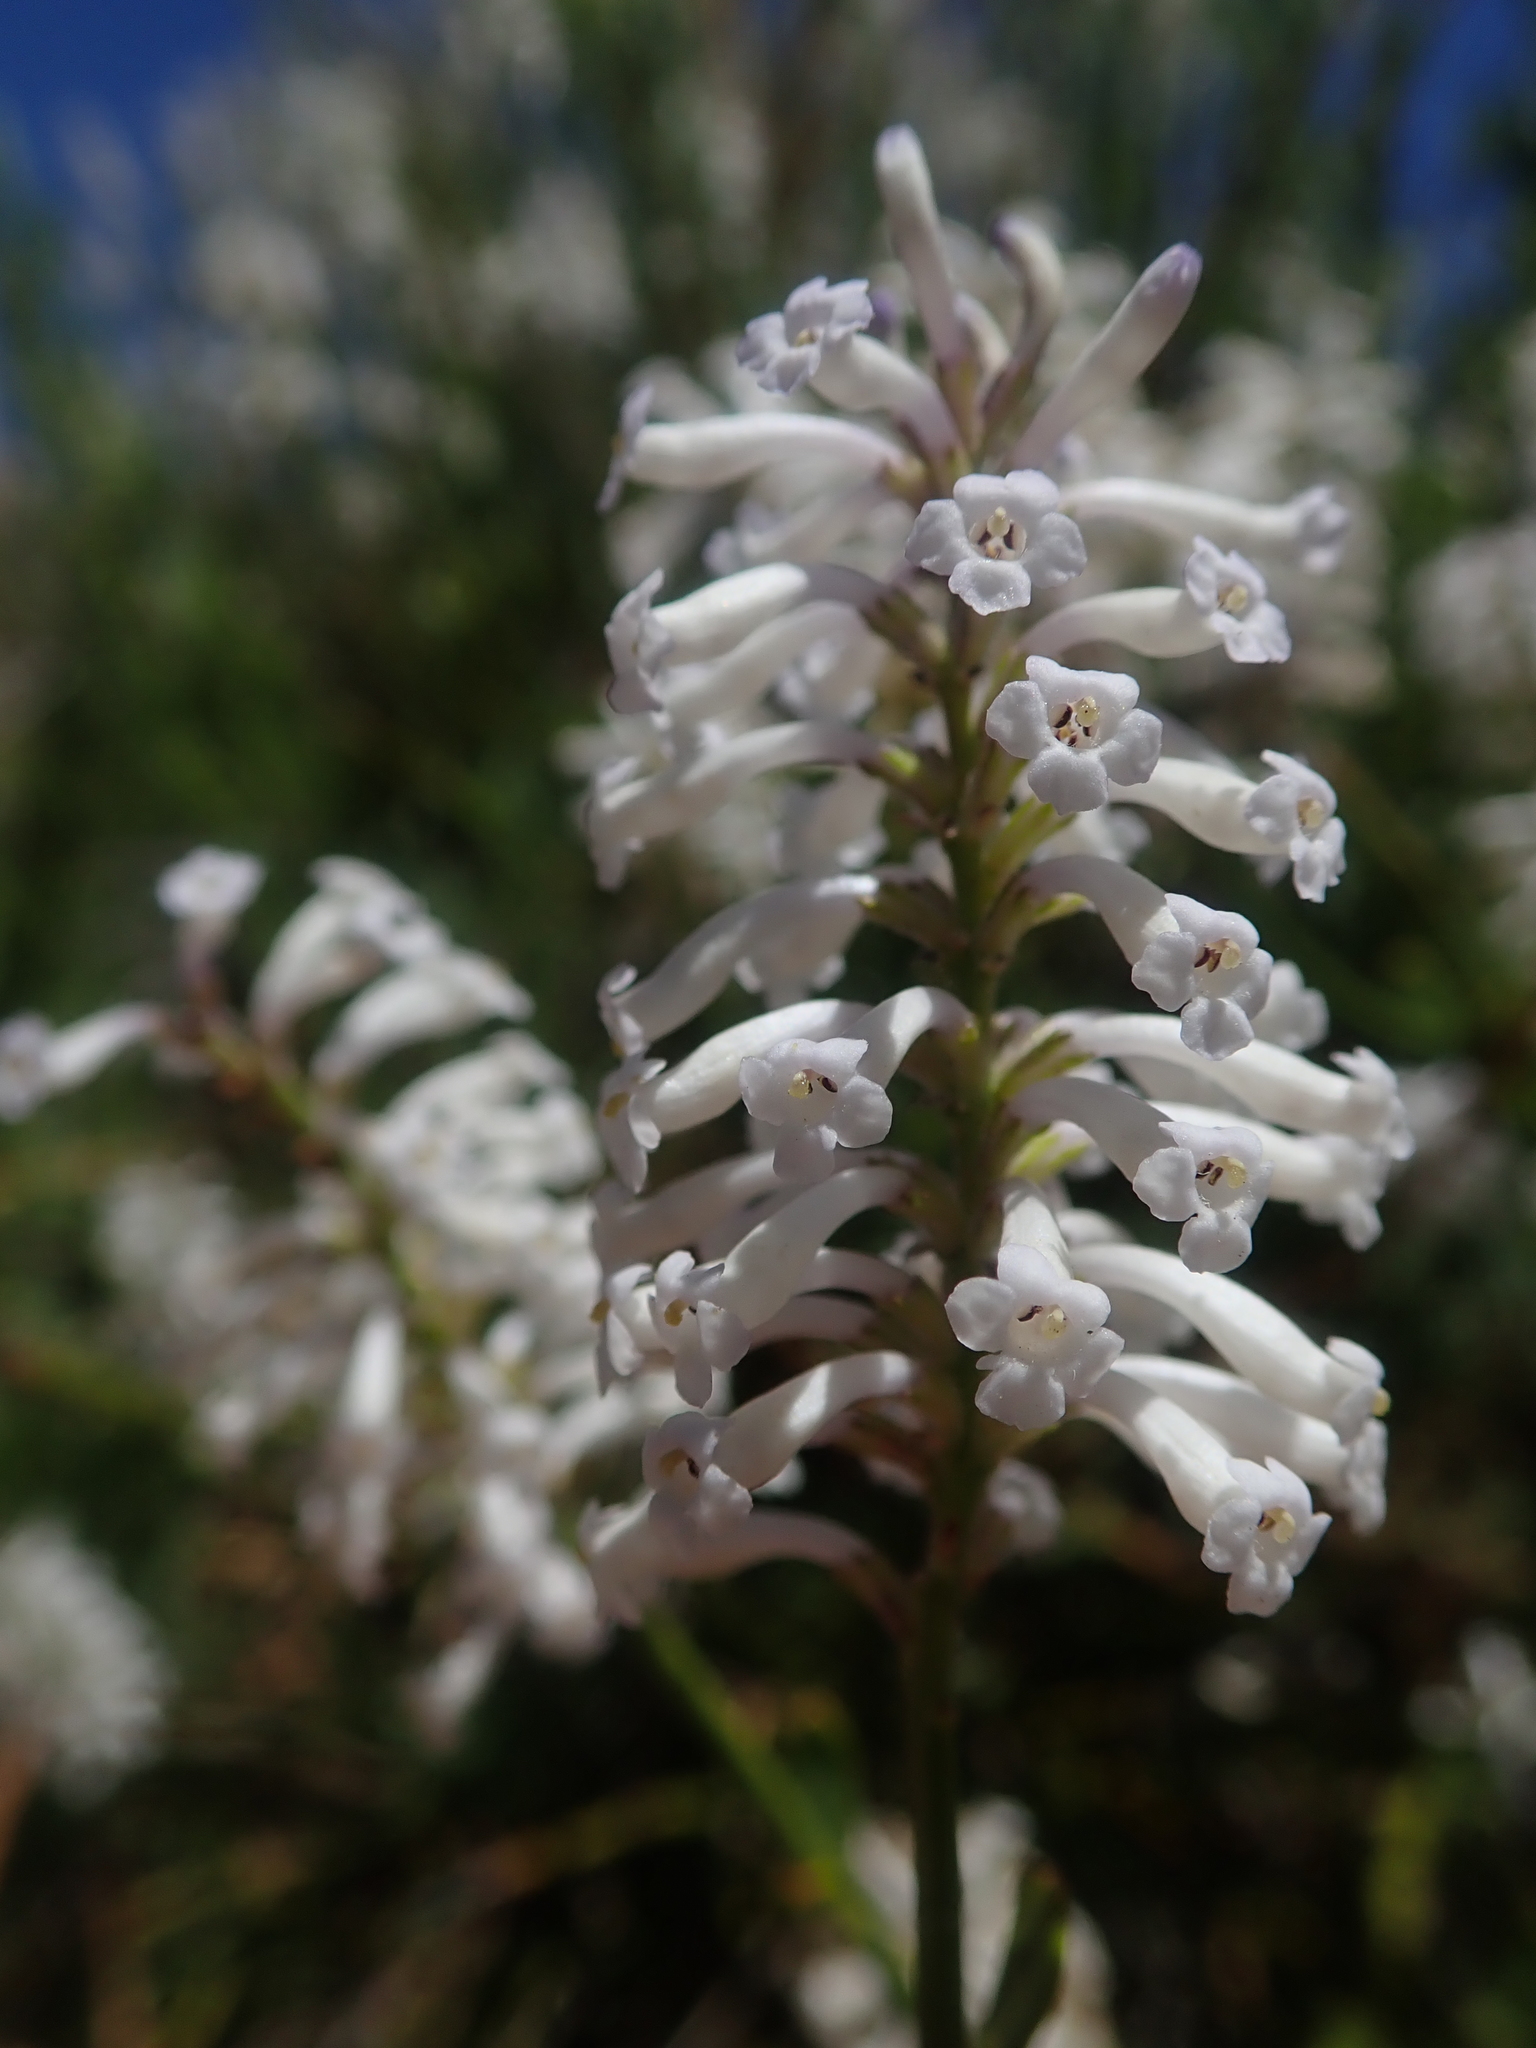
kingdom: Plantae
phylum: Tracheophyta
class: Magnoliopsida
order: Lamiales
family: Verbenaceae
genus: Diostea
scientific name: Diostea juncea
